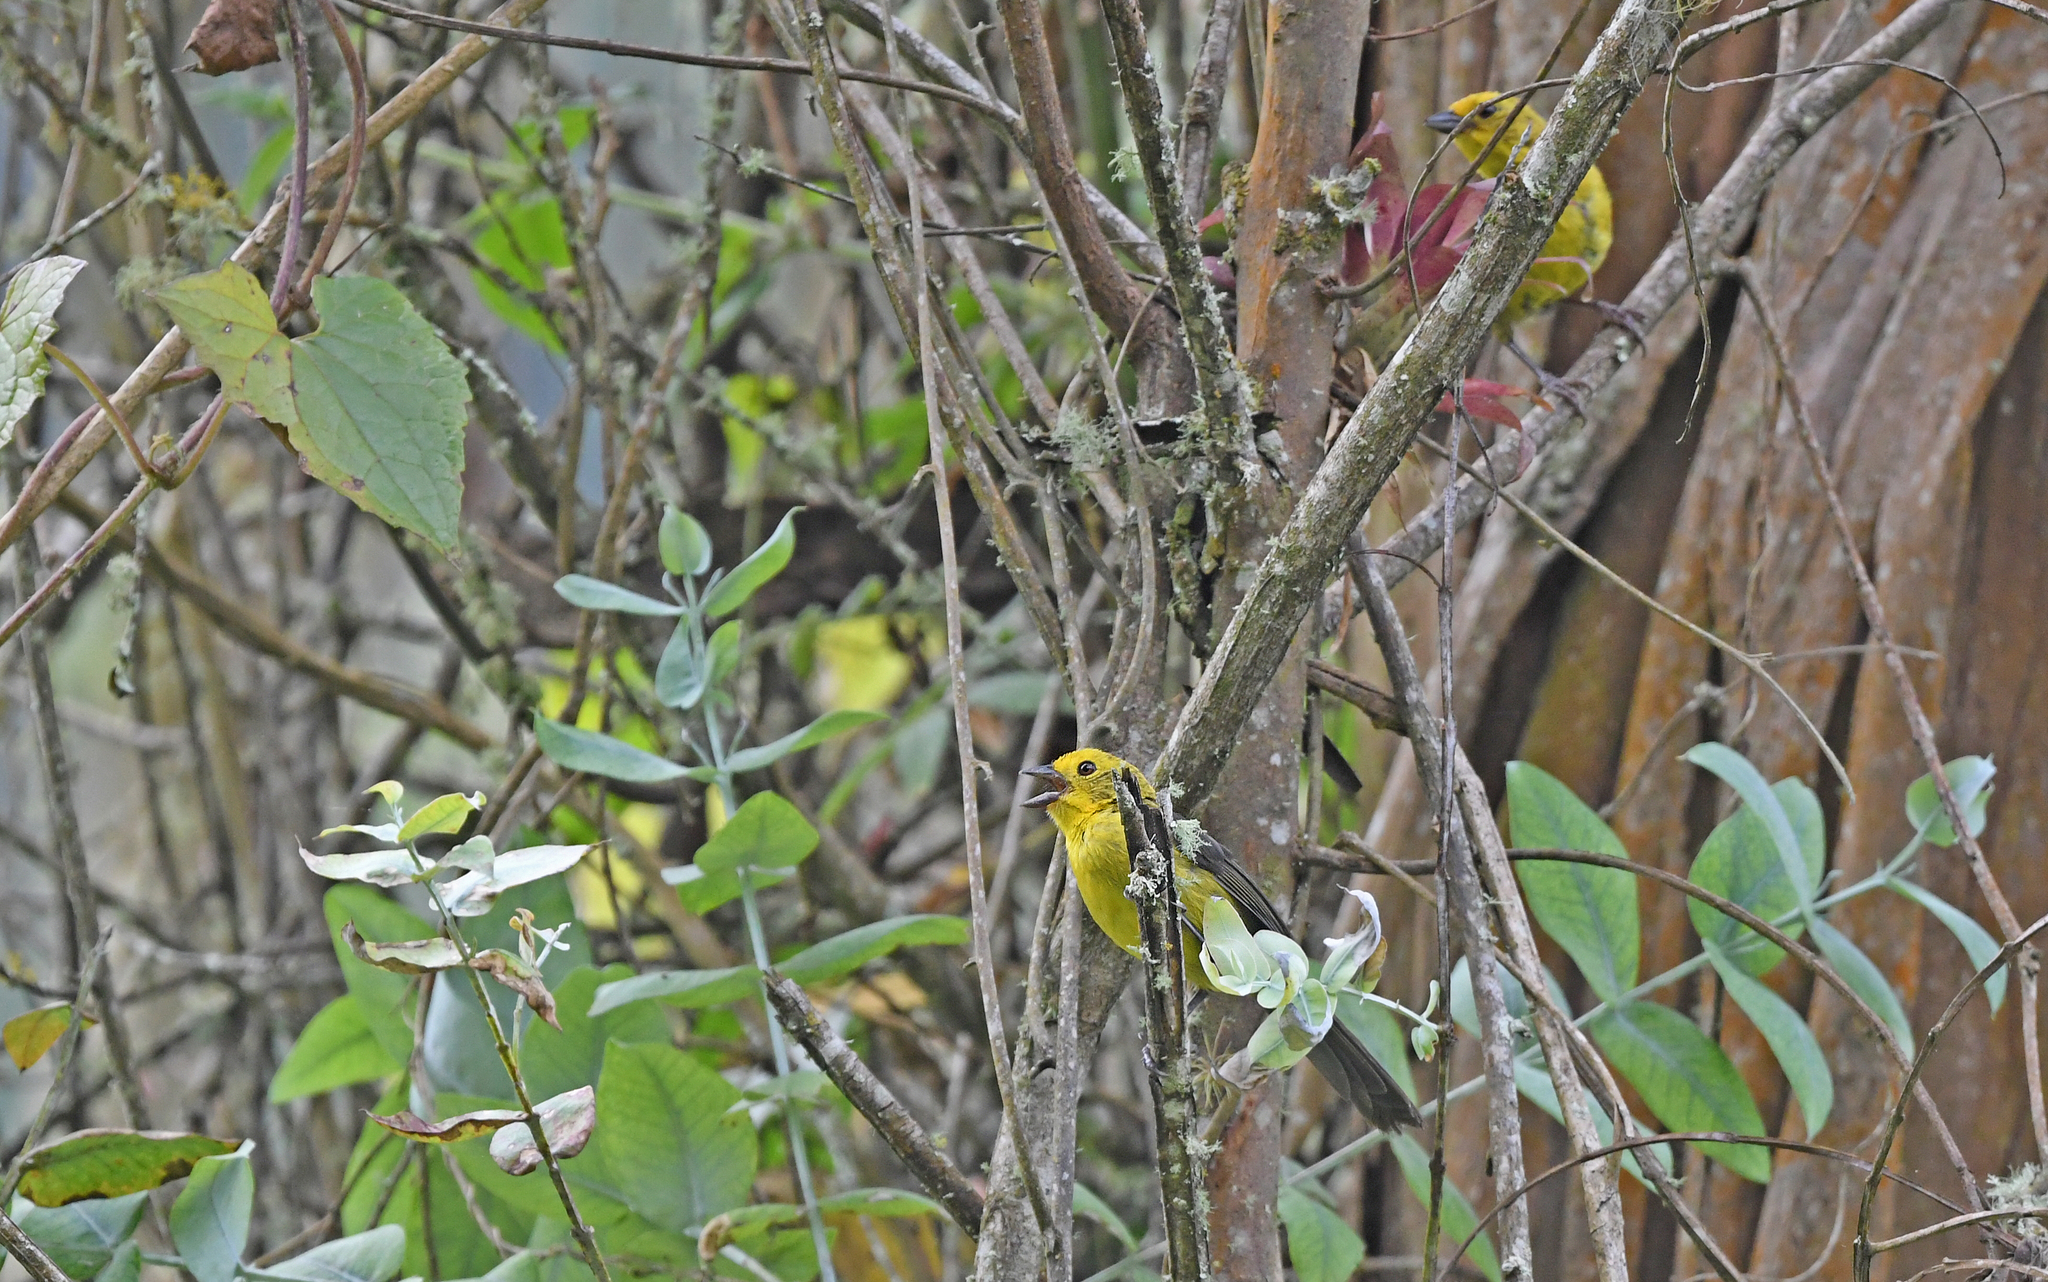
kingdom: Animalia
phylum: Chordata
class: Aves
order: Passeriformes
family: Passerellidae
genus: Atlapetes
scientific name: Atlapetes flaviceps
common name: Yellow-headed brush-finch
